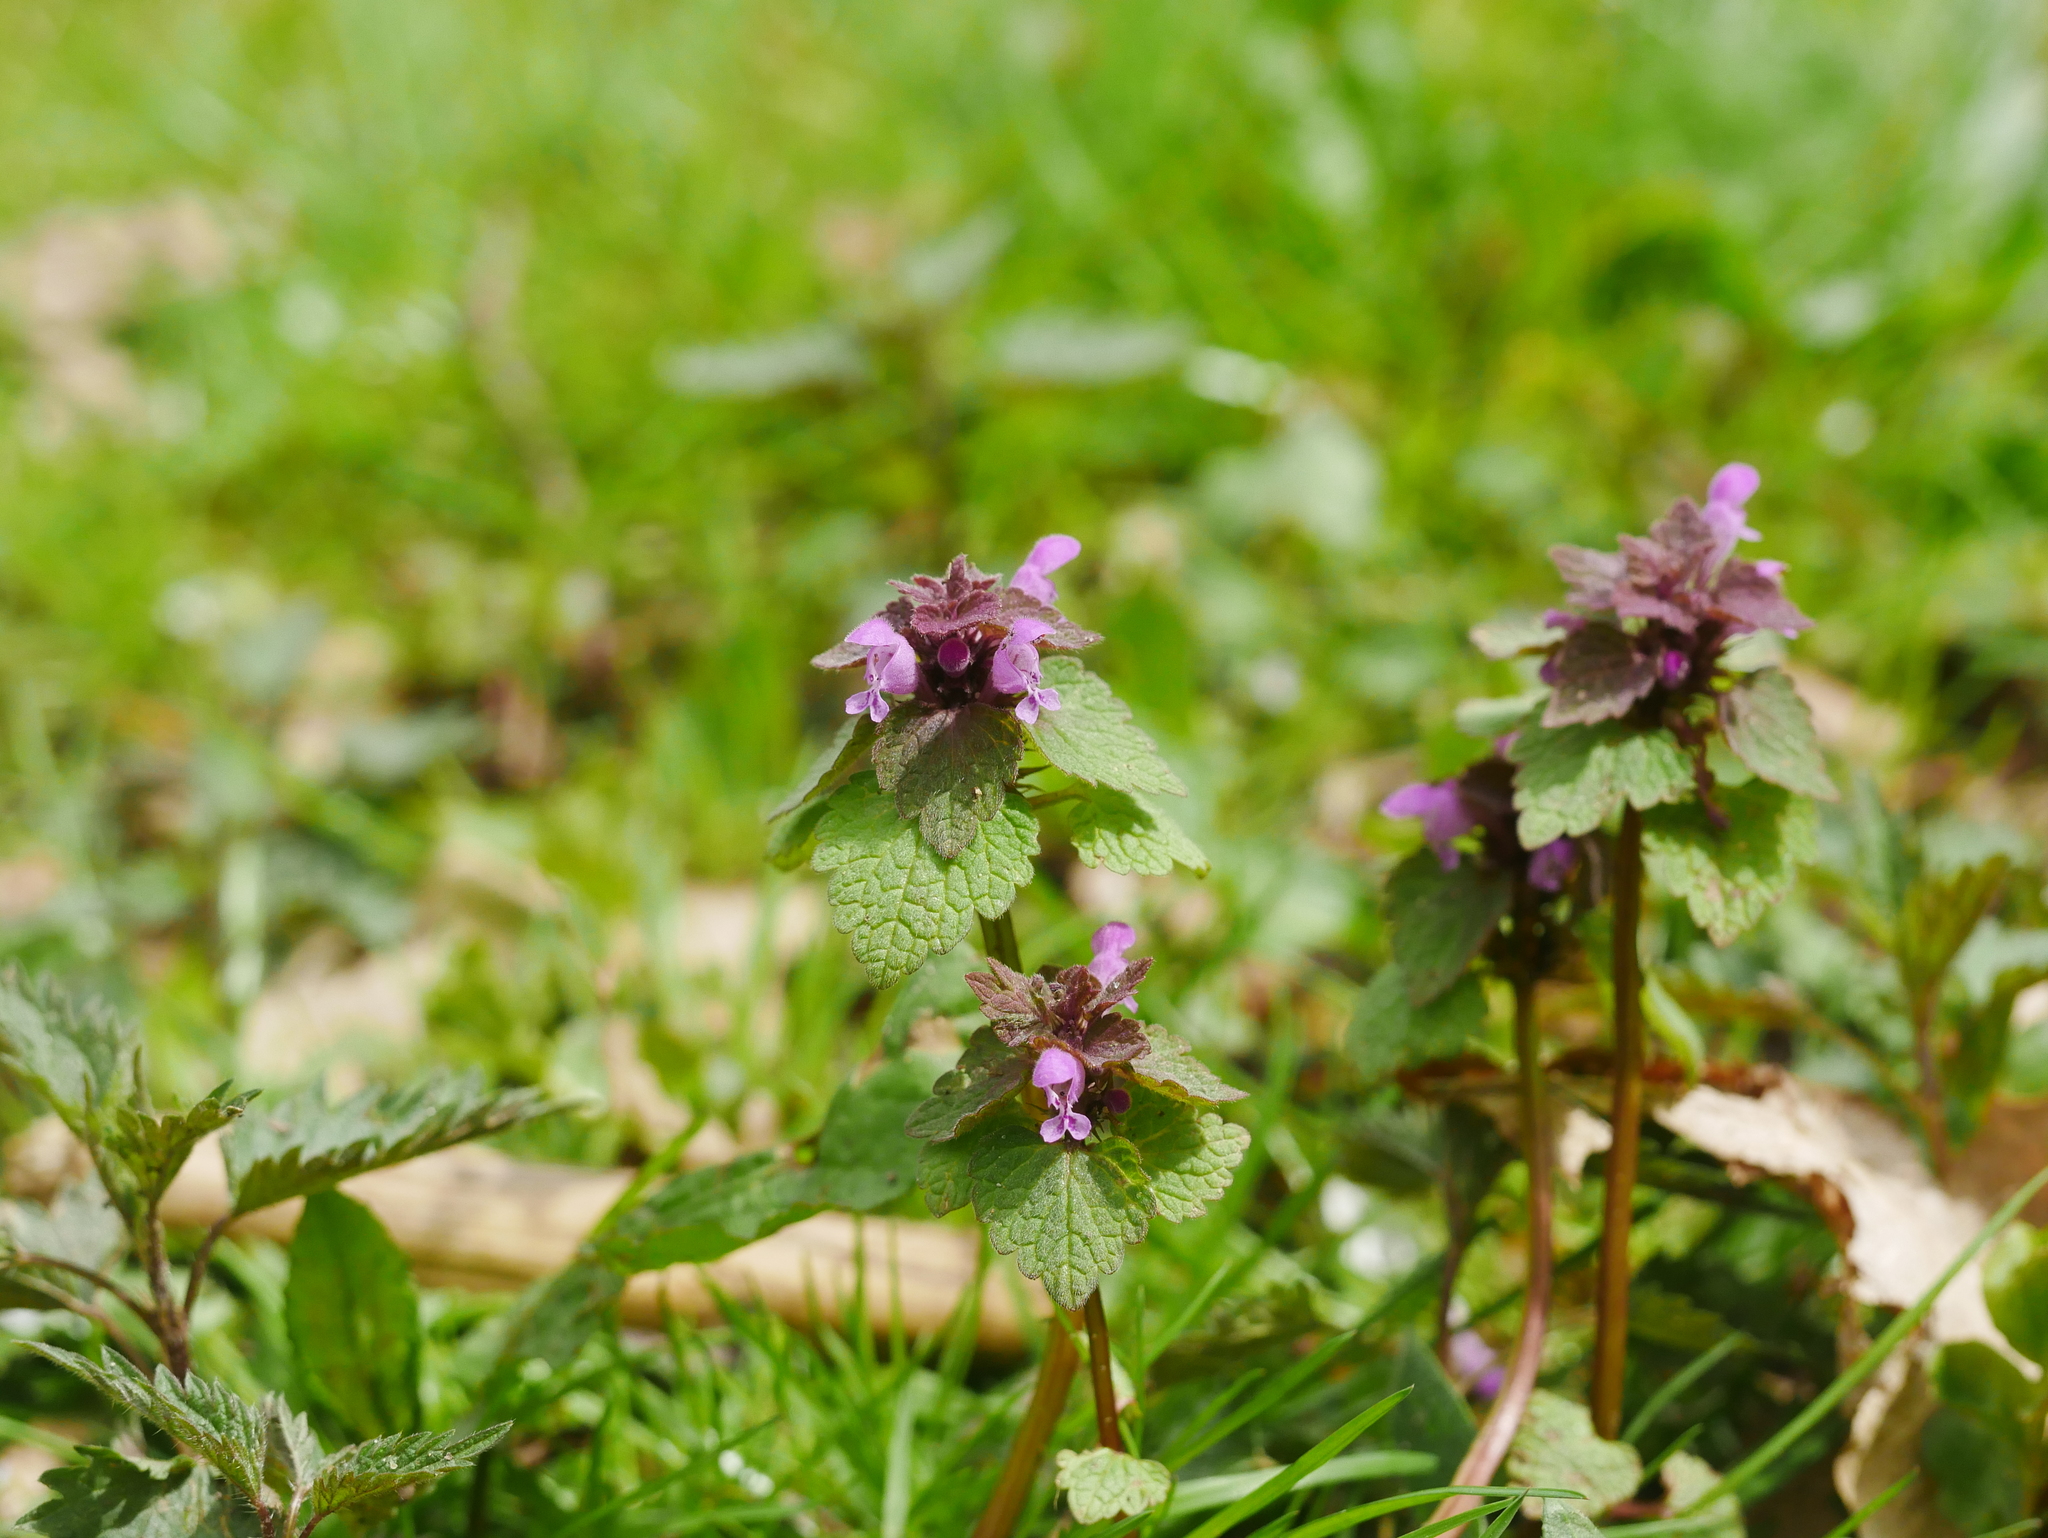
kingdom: Plantae
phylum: Tracheophyta
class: Magnoliopsida
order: Lamiales
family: Lamiaceae
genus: Lamium
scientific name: Lamium purpureum
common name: Red dead-nettle
